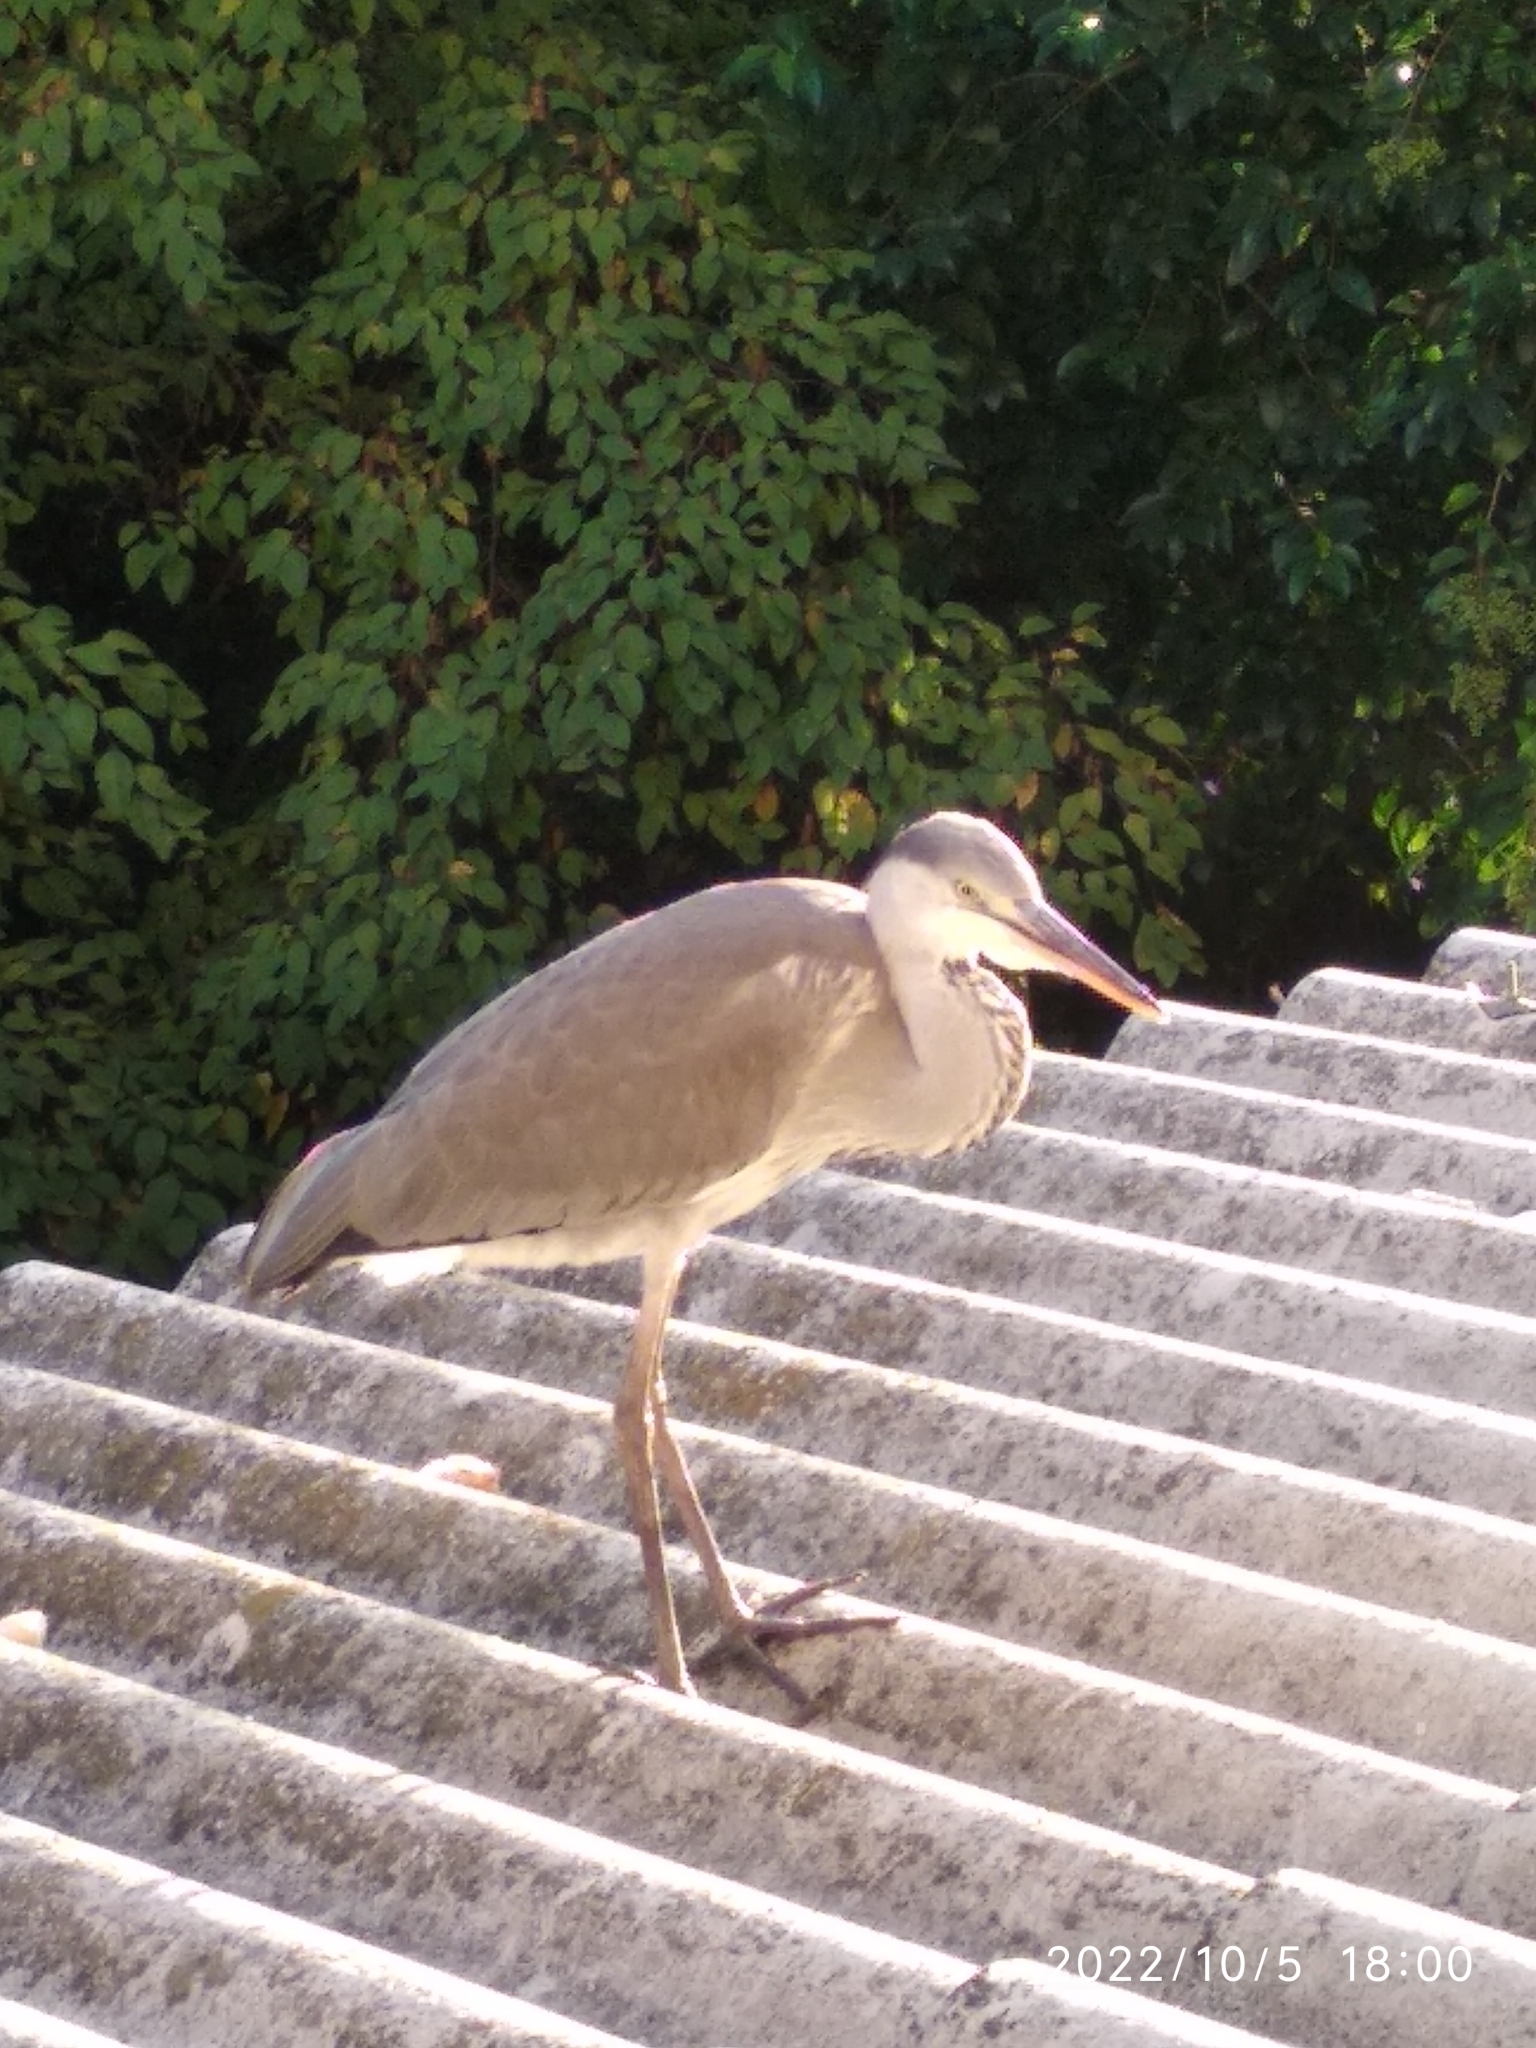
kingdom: Animalia
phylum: Chordata
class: Aves
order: Pelecaniformes
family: Ardeidae
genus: Ardea
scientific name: Ardea cinerea
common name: Grey heron
